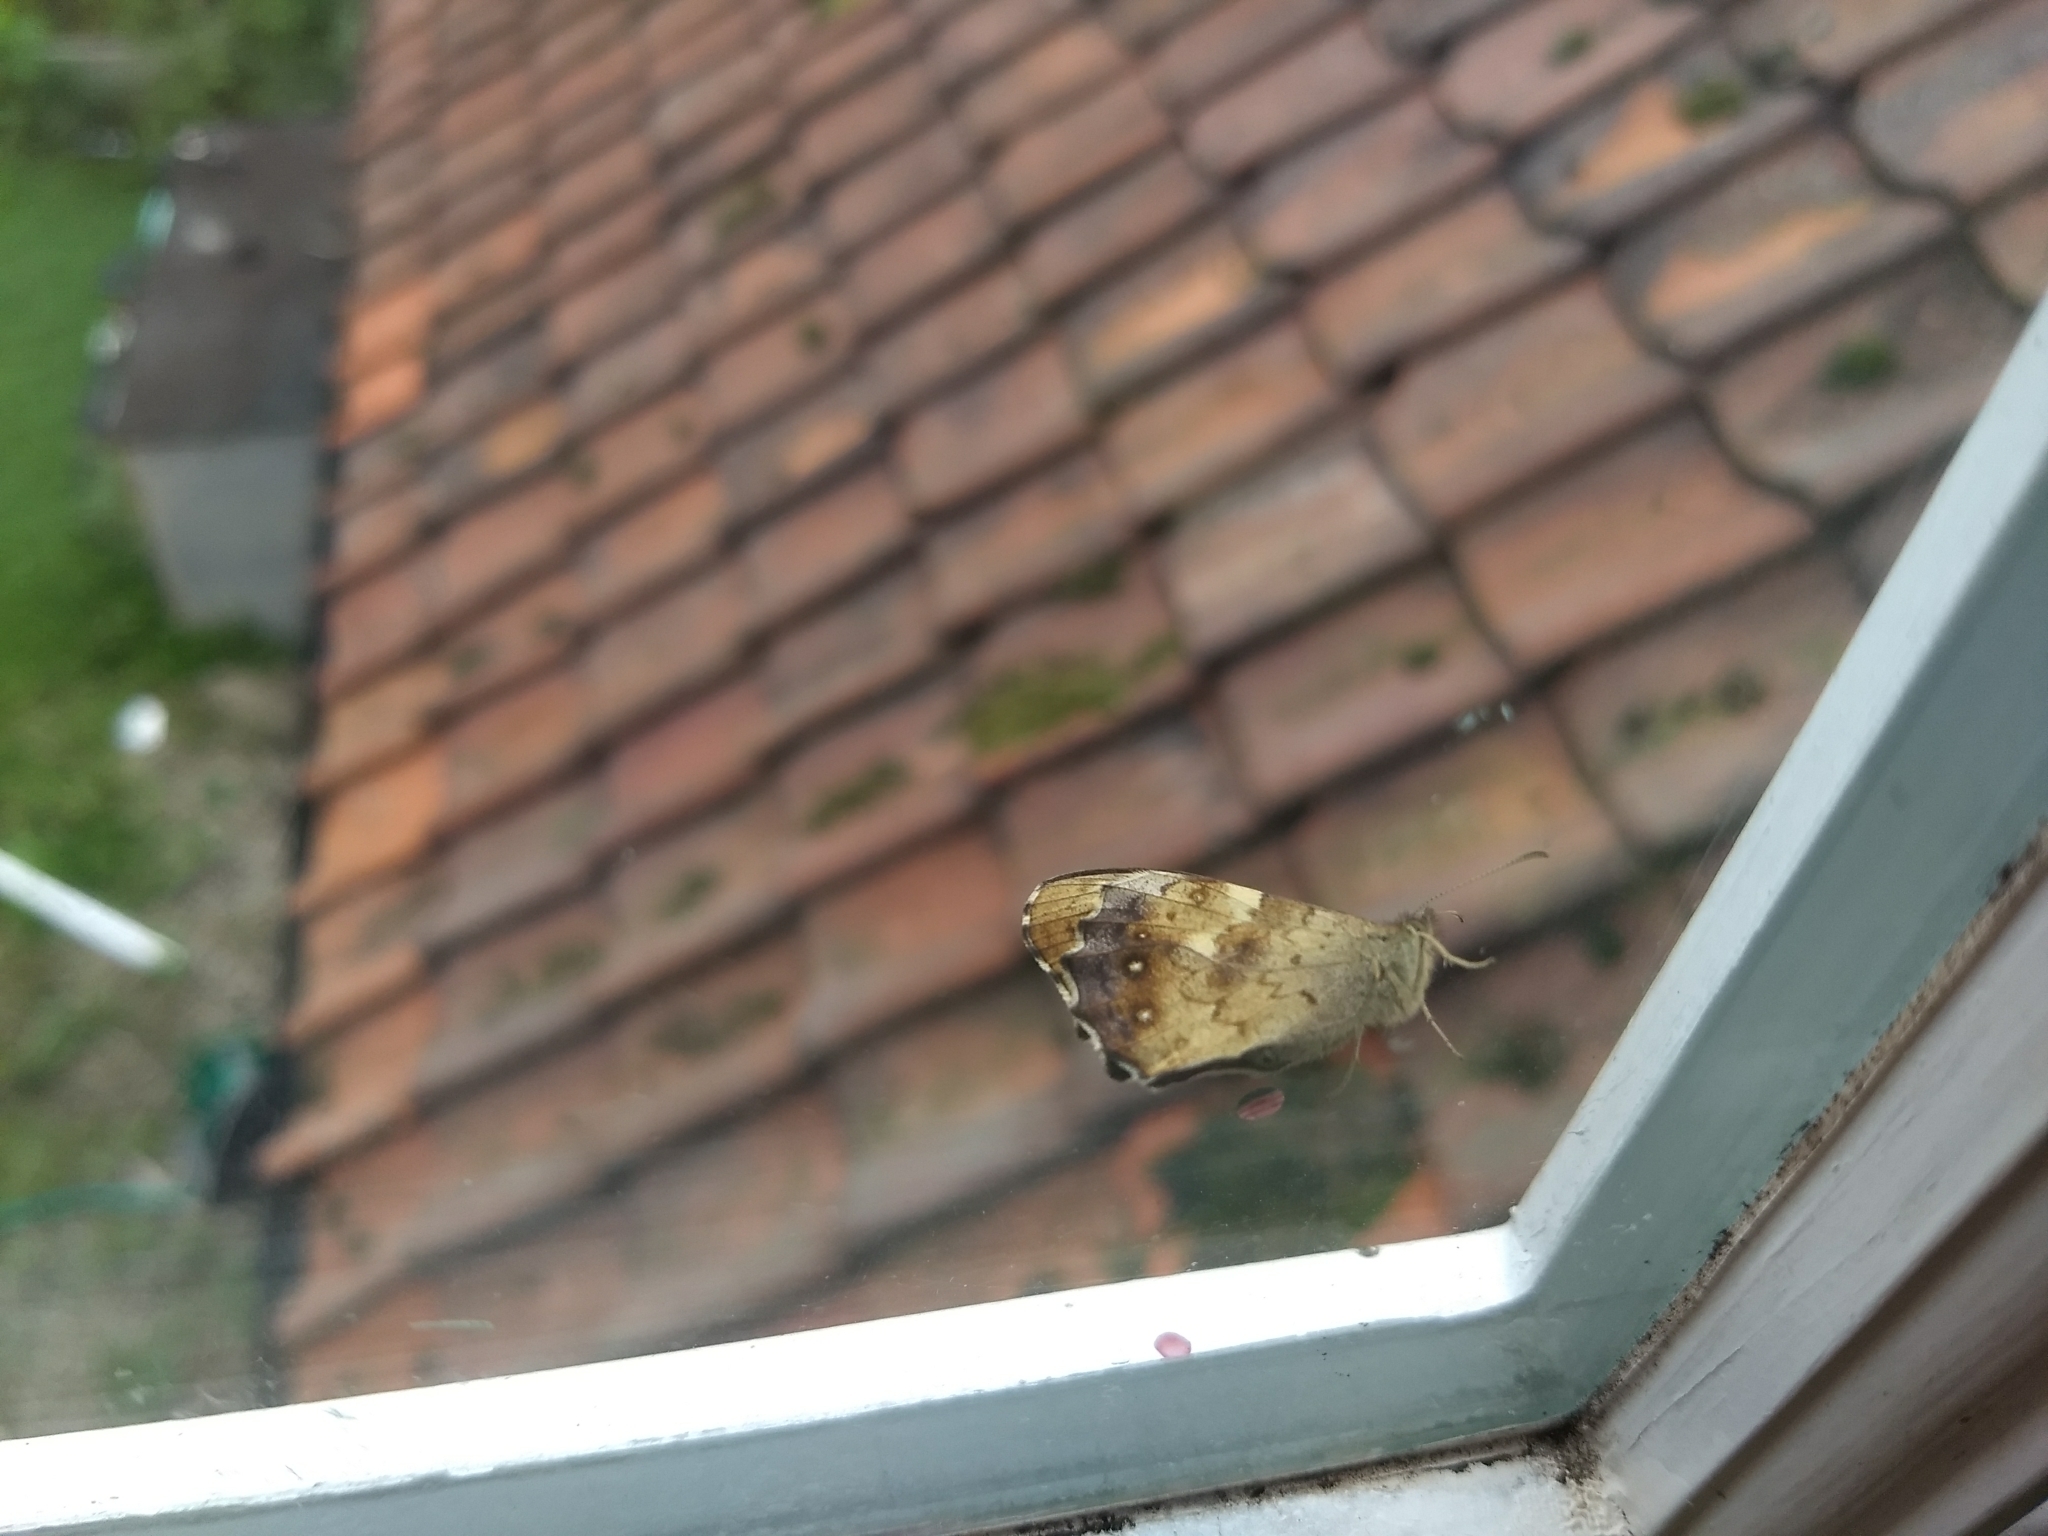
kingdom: Animalia
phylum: Arthropoda
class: Insecta
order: Lepidoptera
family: Nymphalidae
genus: Pararge
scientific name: Pararge aegeria
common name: Speckled wood
